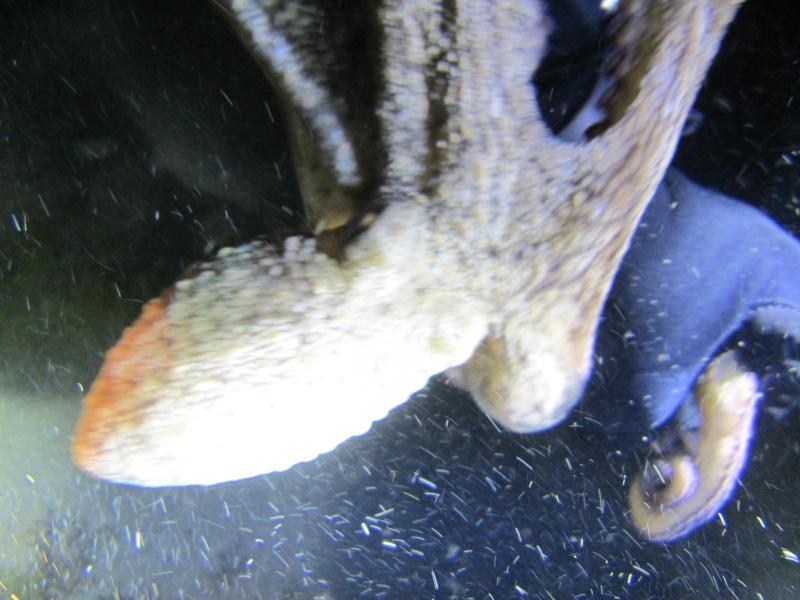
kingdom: Animalia
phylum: Mollusca
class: Cephalopoda
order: Octopoda
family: Octopodidae
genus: Octopus
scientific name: Octopus vulgaris
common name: Common octopus
